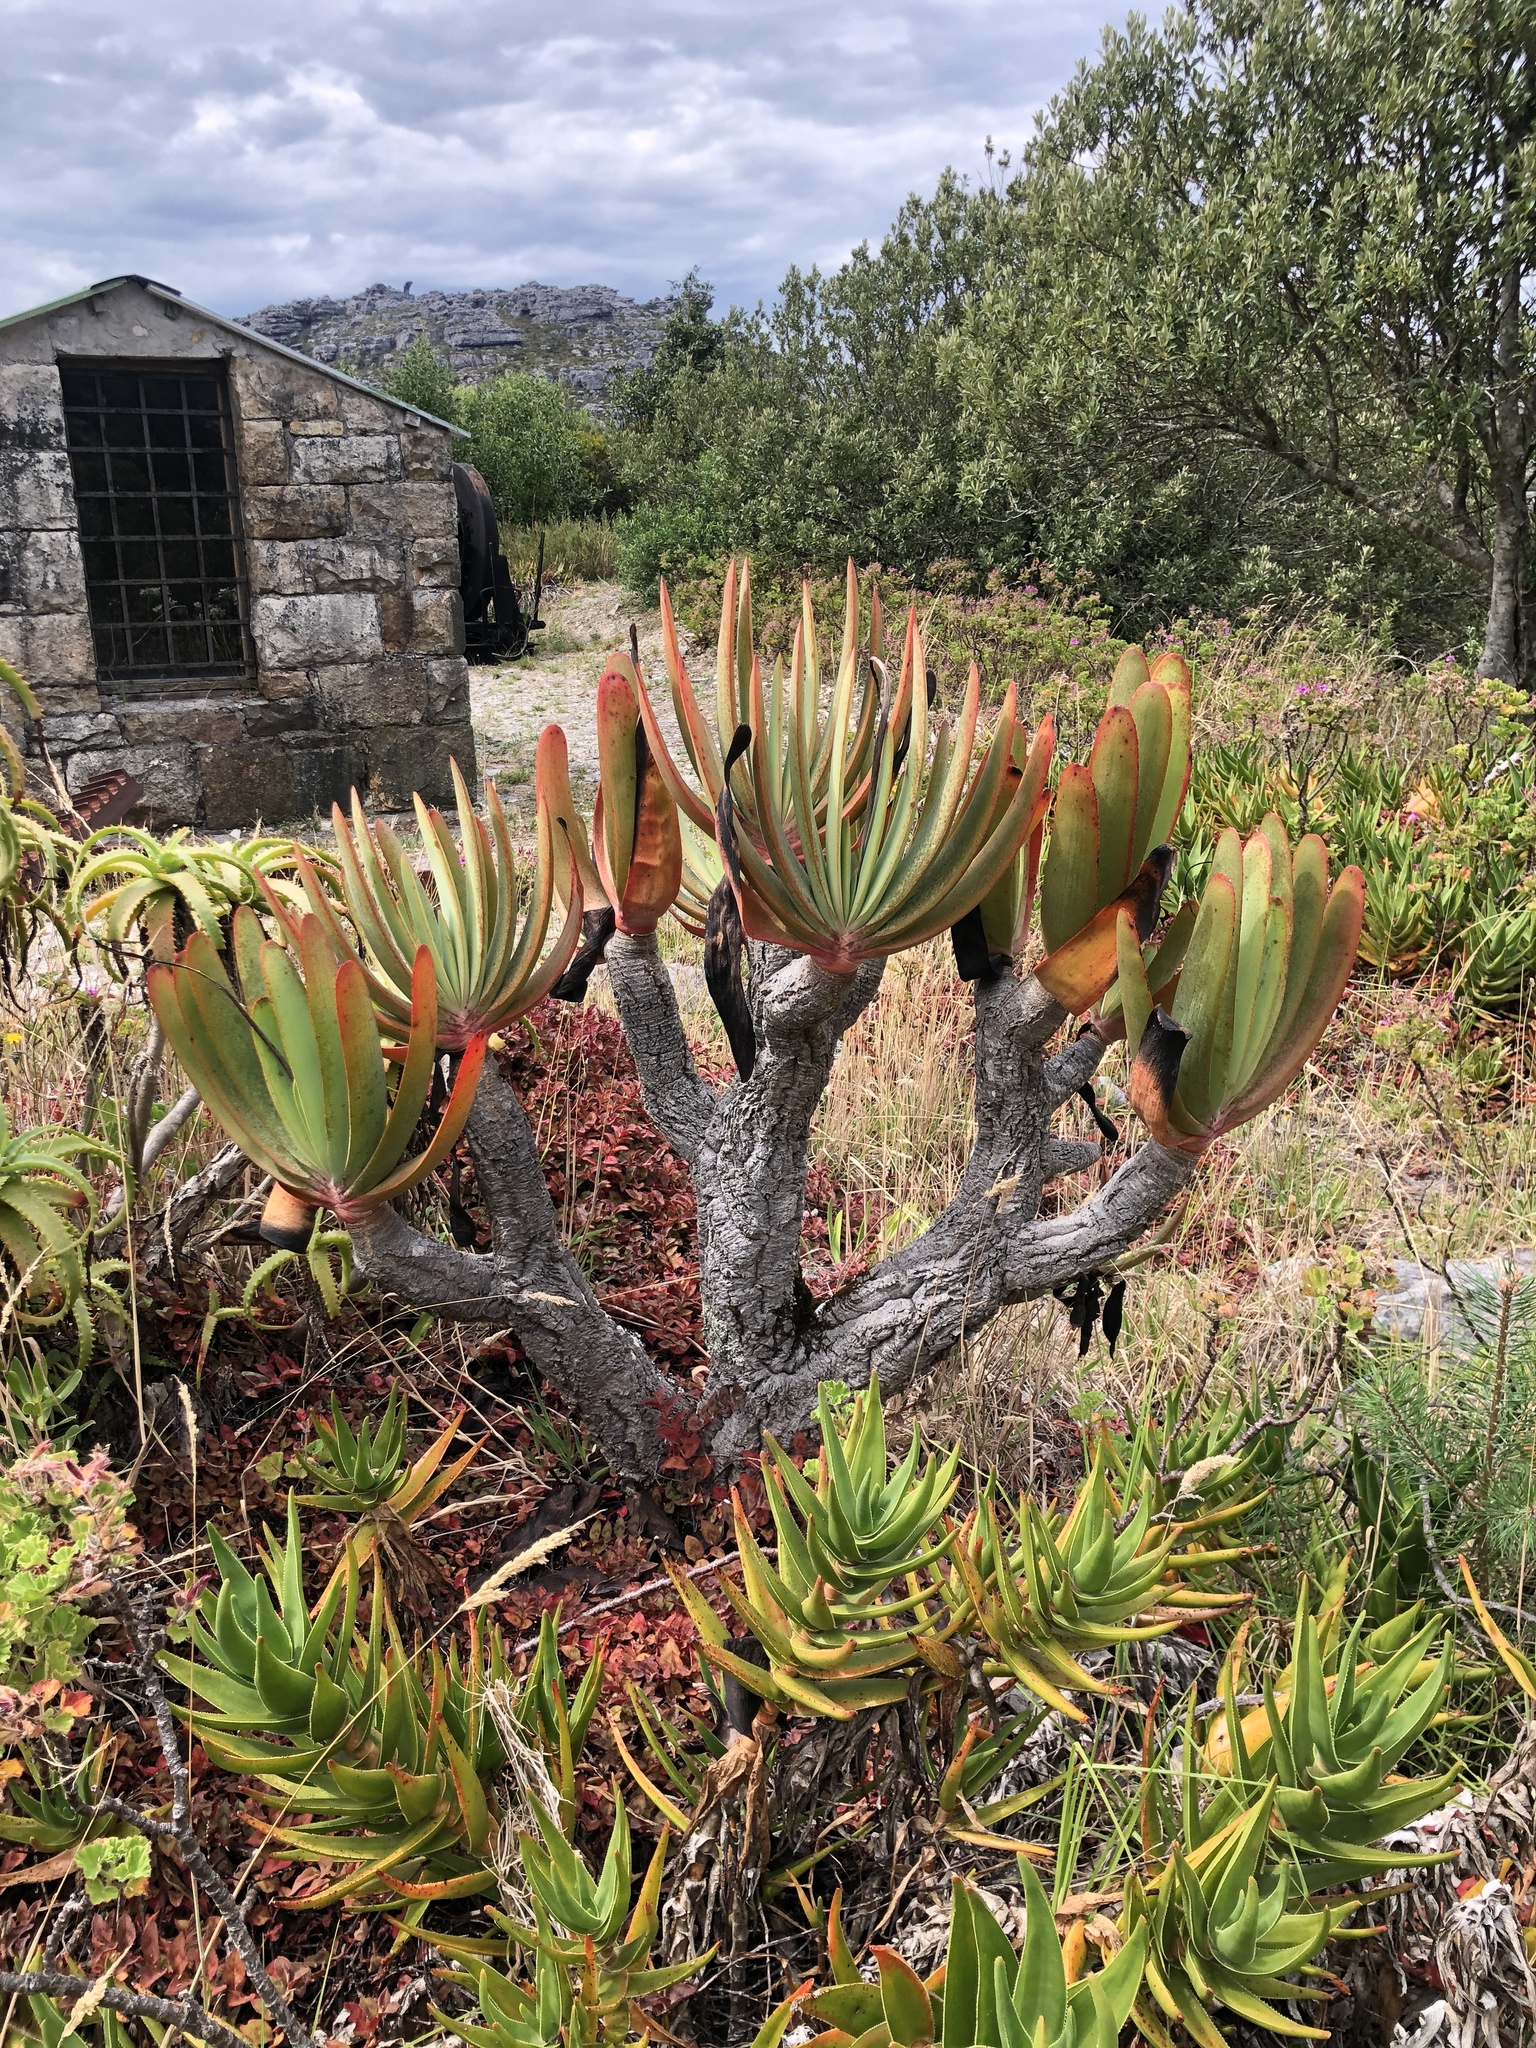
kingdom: Plantae
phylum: Tracheophyta
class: Liliopsida
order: Asparagales
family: Asphodelaceae
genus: Kumara
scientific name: Kumara plicatilis
